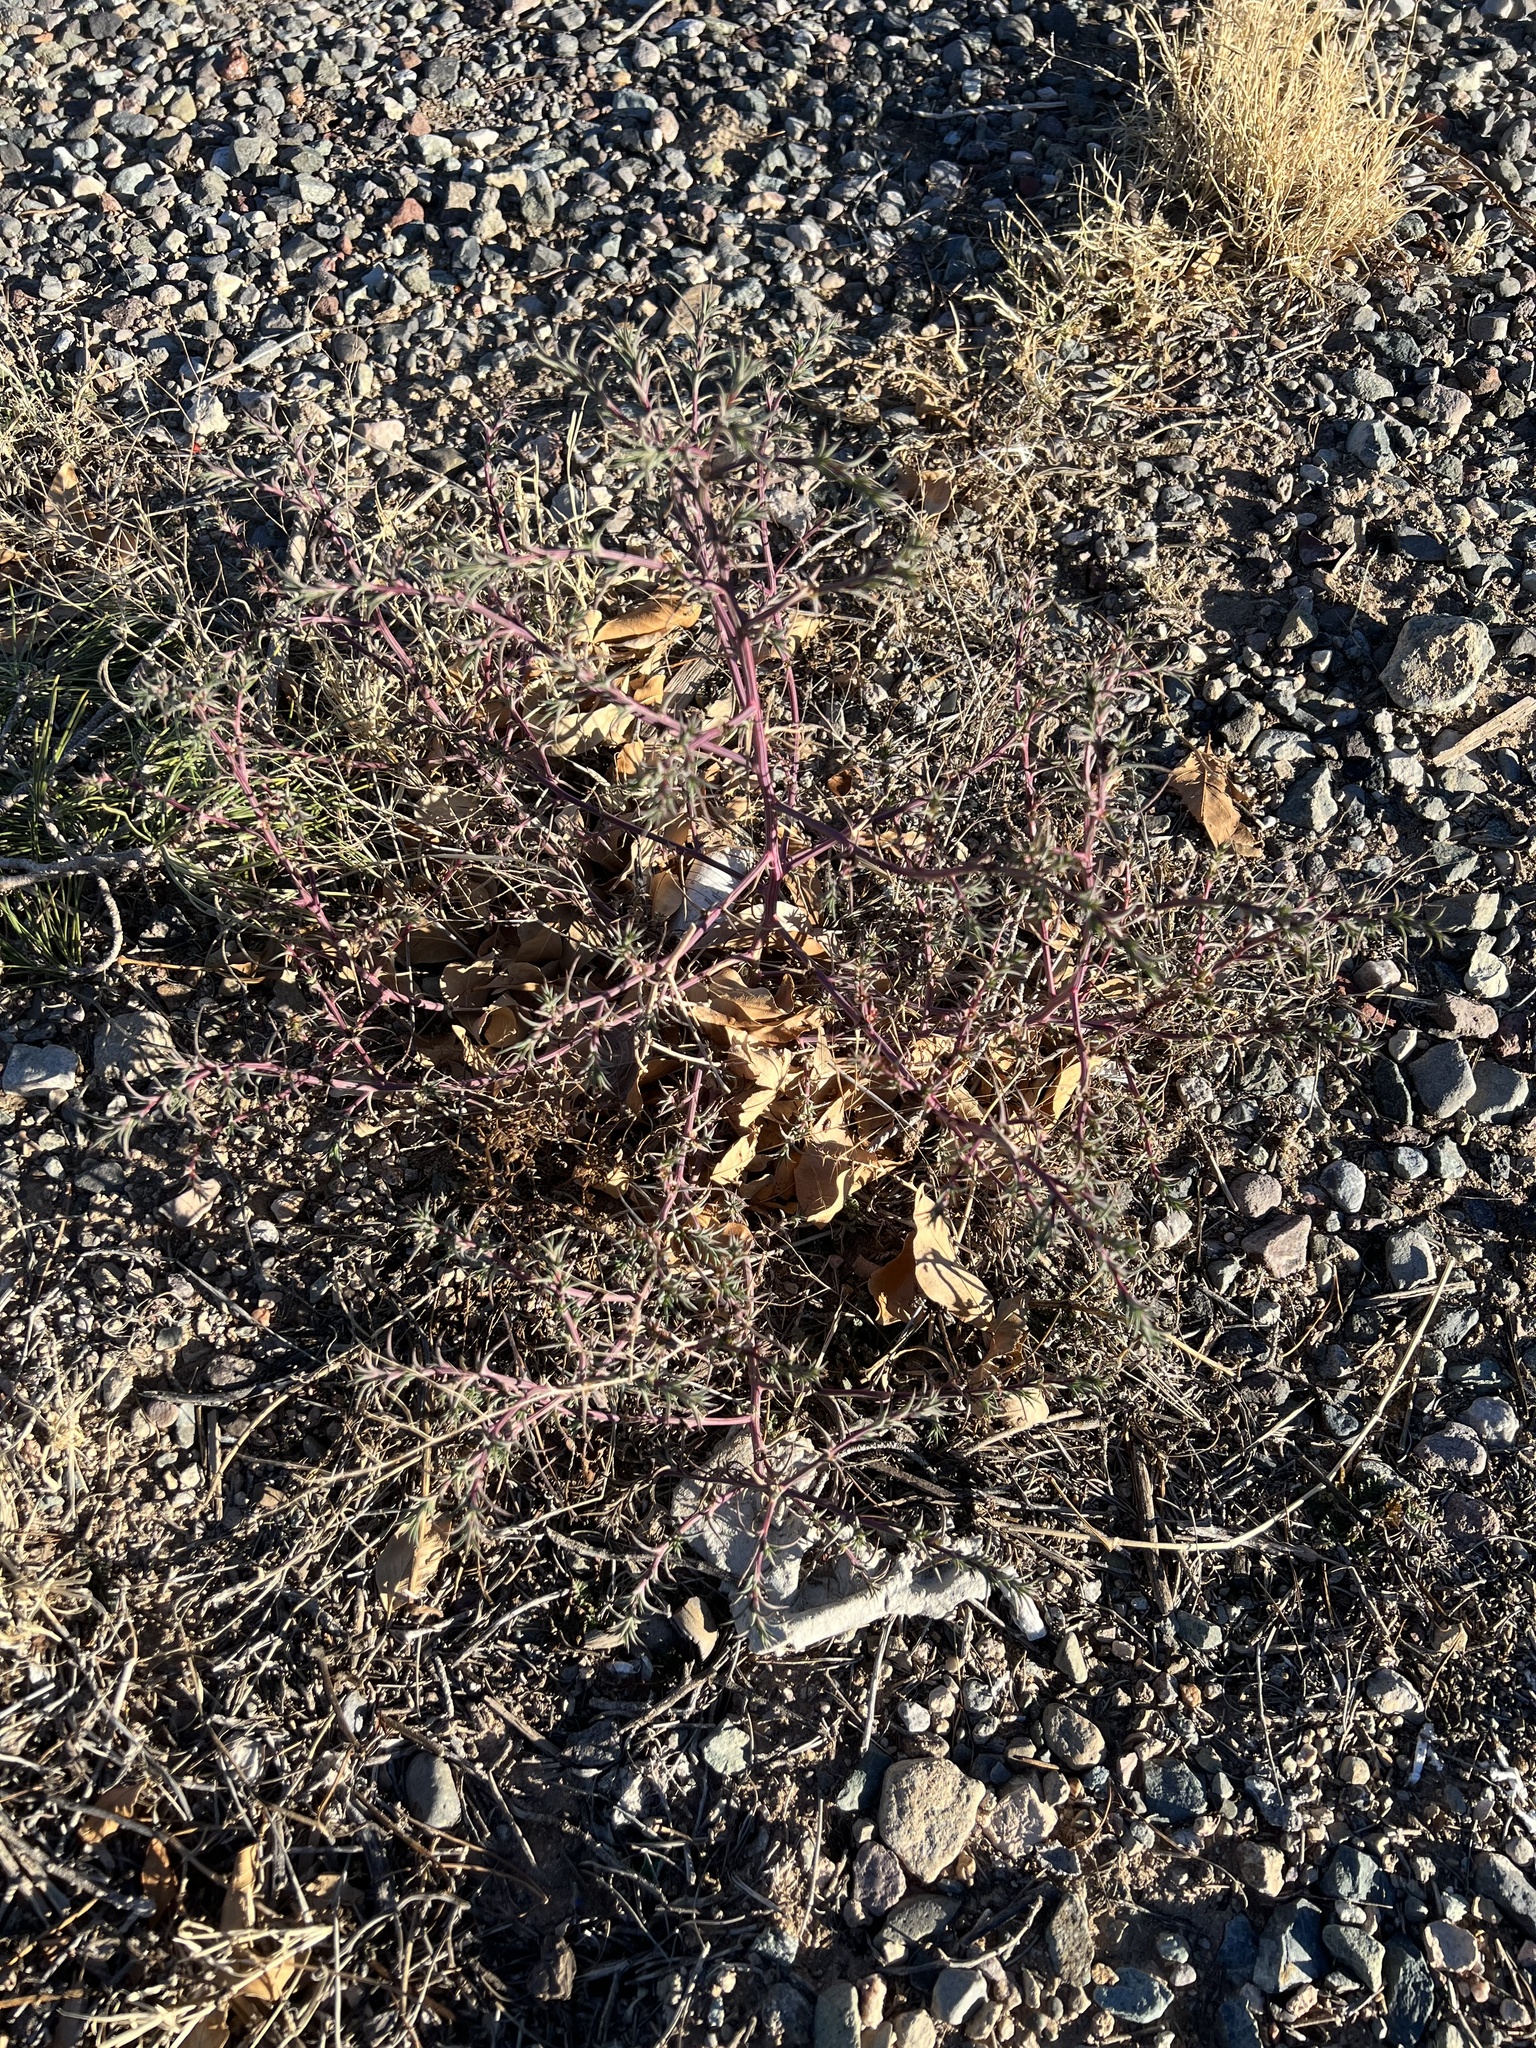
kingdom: Plantae
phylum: Tracheophyta
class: Magnoliopsida
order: Caryophyllales
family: Amaranthaceae
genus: Salsola
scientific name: Salsola tragus
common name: Prickly russian thistle
